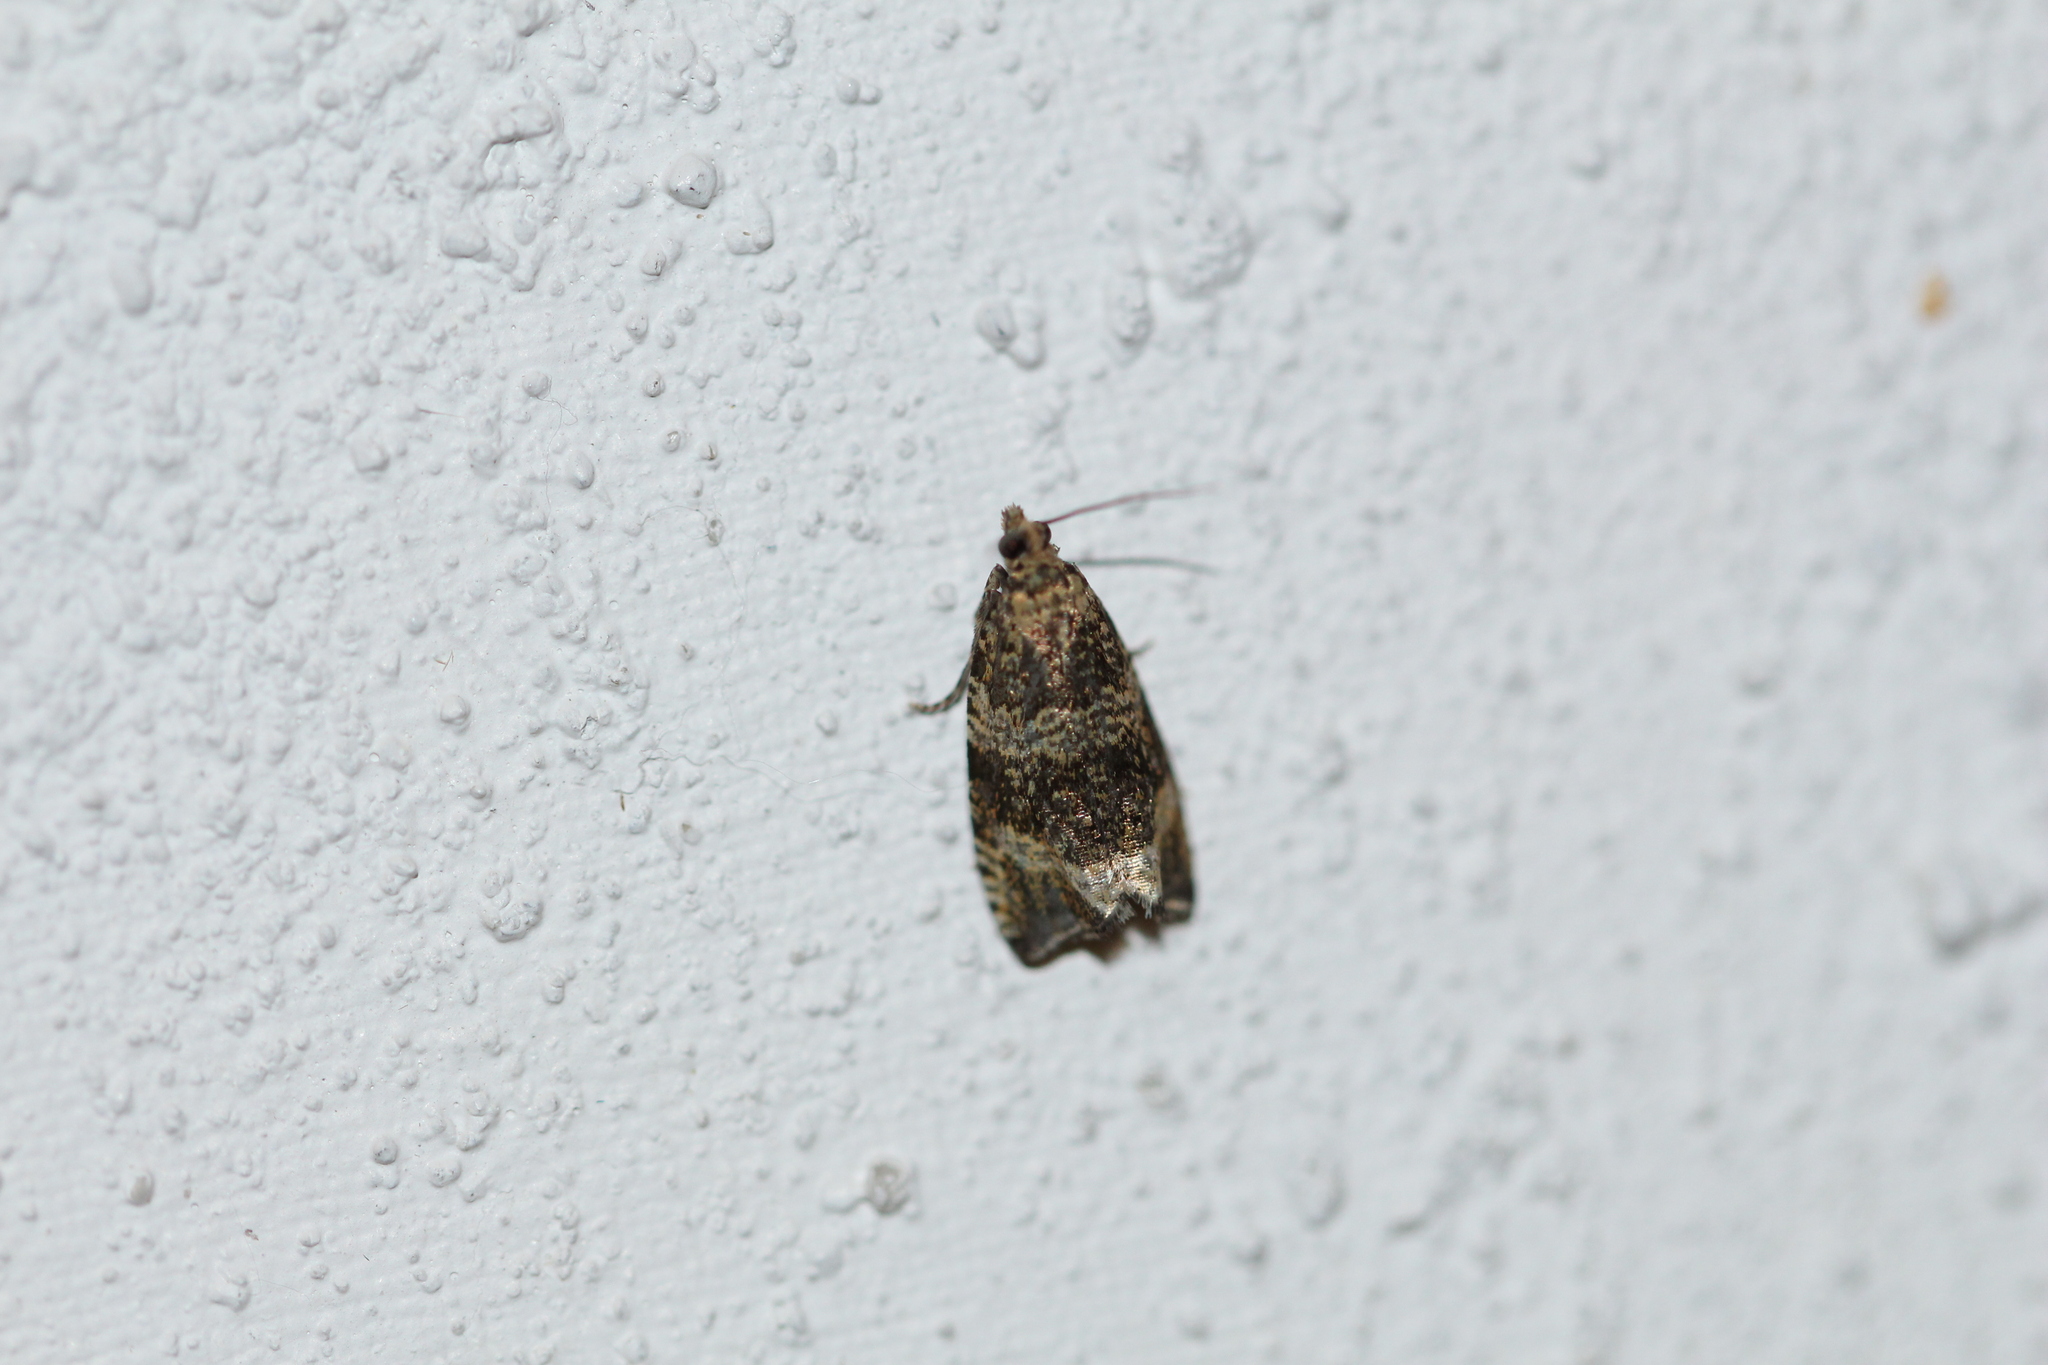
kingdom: Animalia
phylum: Arthropoda
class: Insecta
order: Lepidoptera
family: Tortricidae
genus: Syricoris
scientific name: Syricoris lacunana
